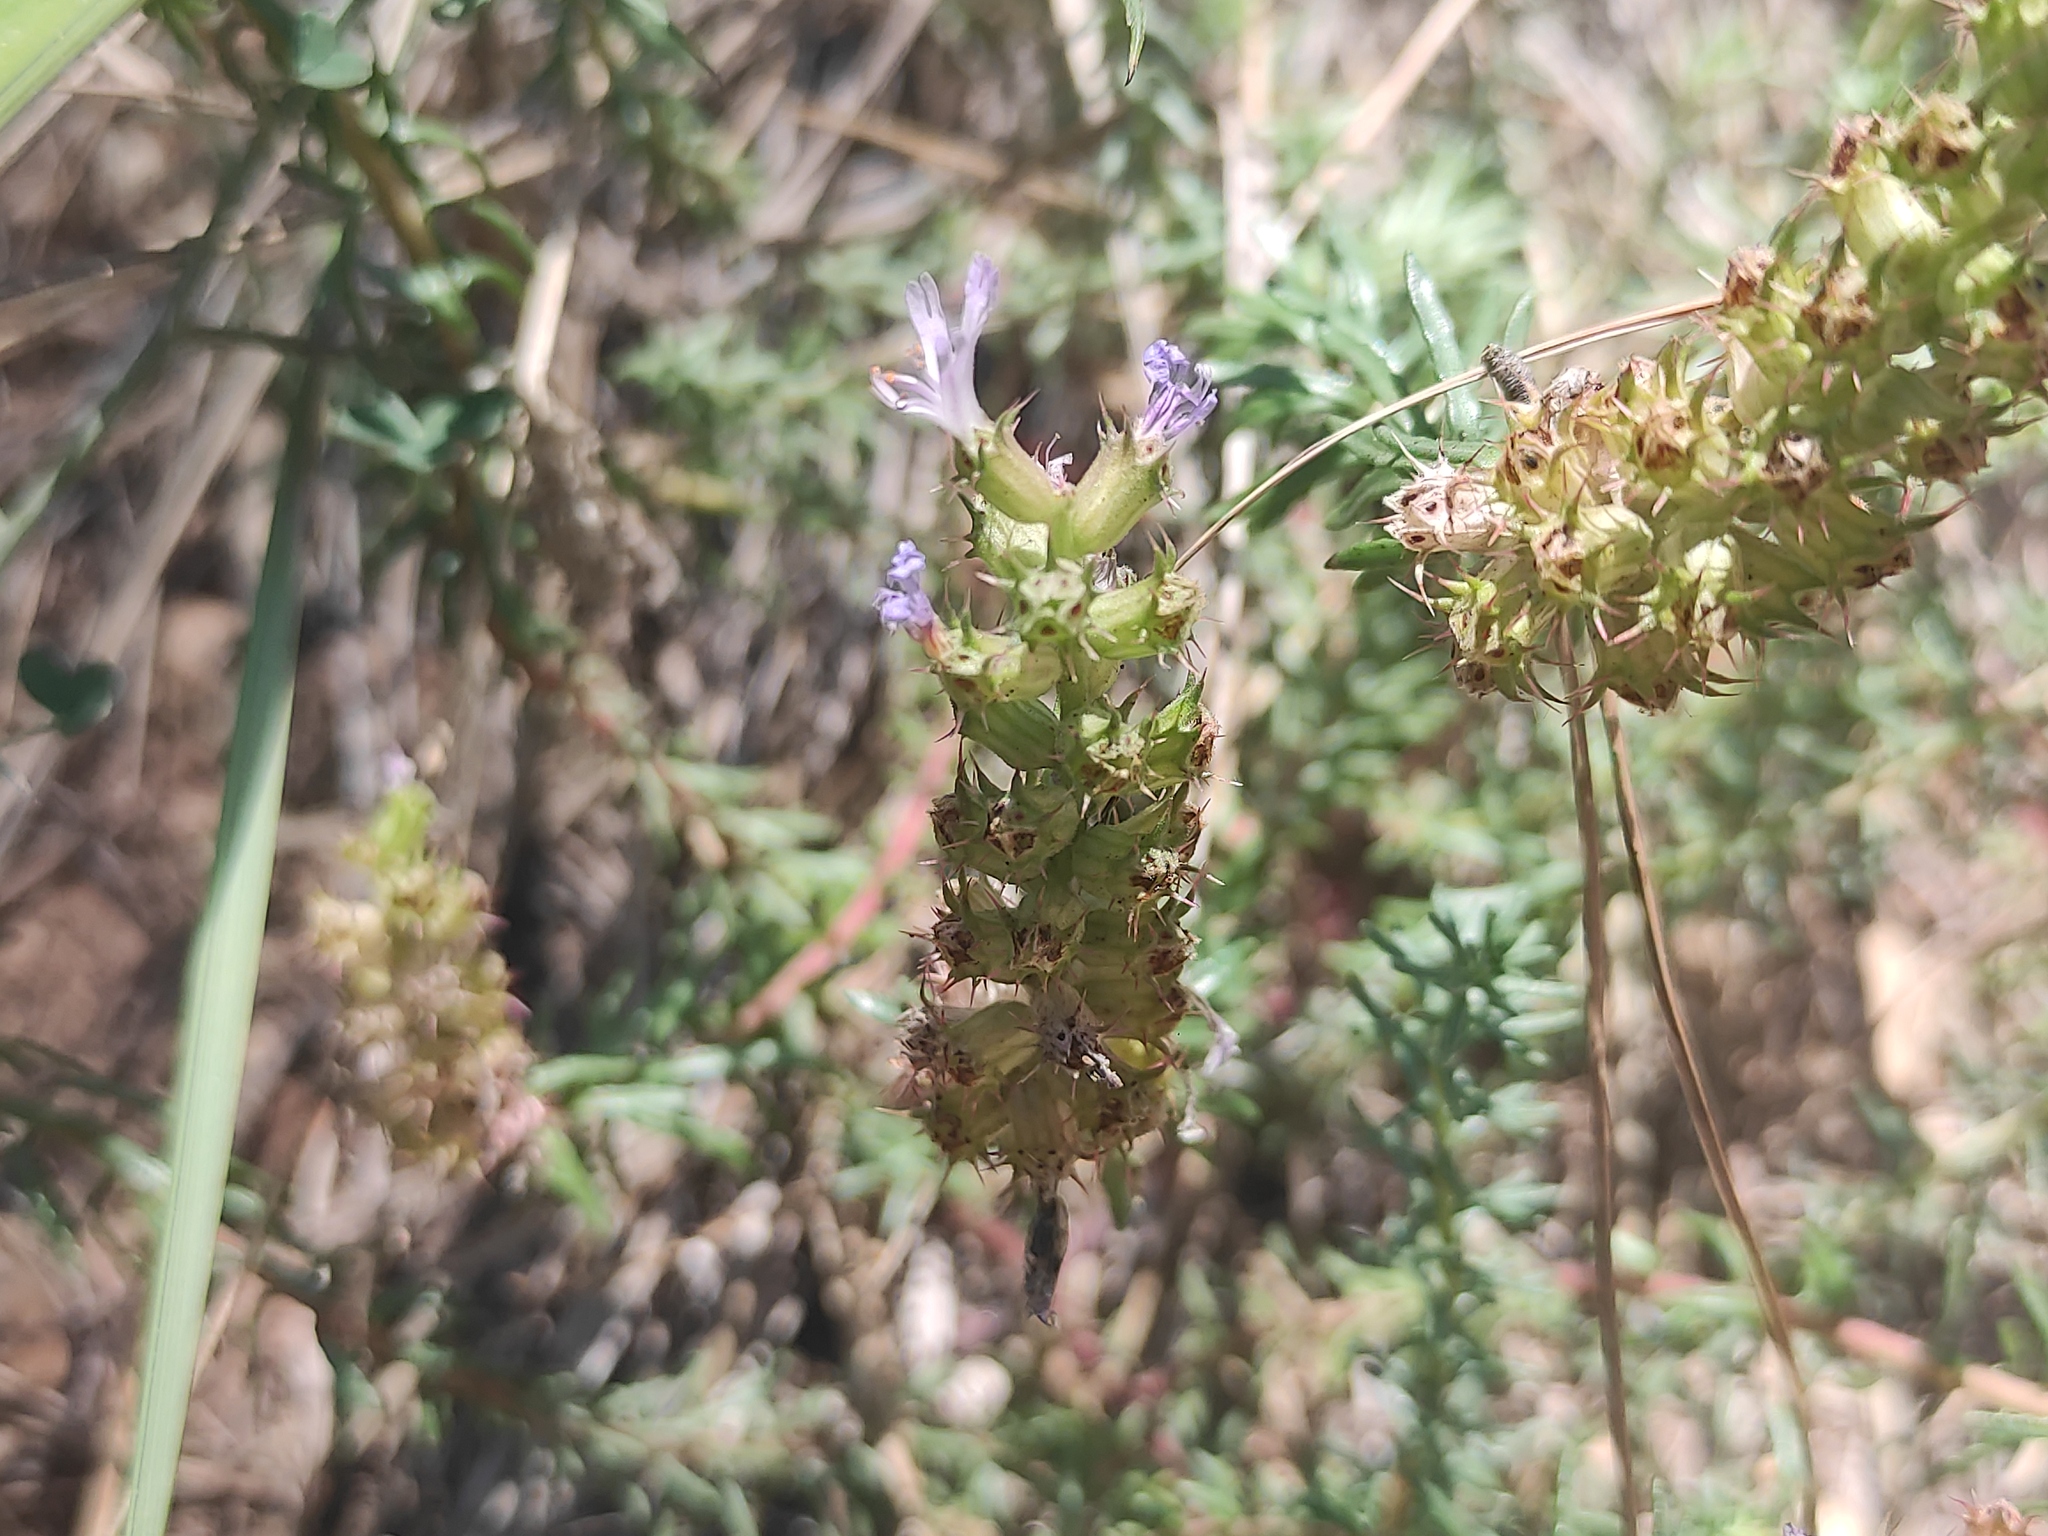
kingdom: Plantae
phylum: Tracheophyta
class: Magnoliopsida
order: Ericales
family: Primulaceae
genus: Coris
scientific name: Coris monspeliensis
